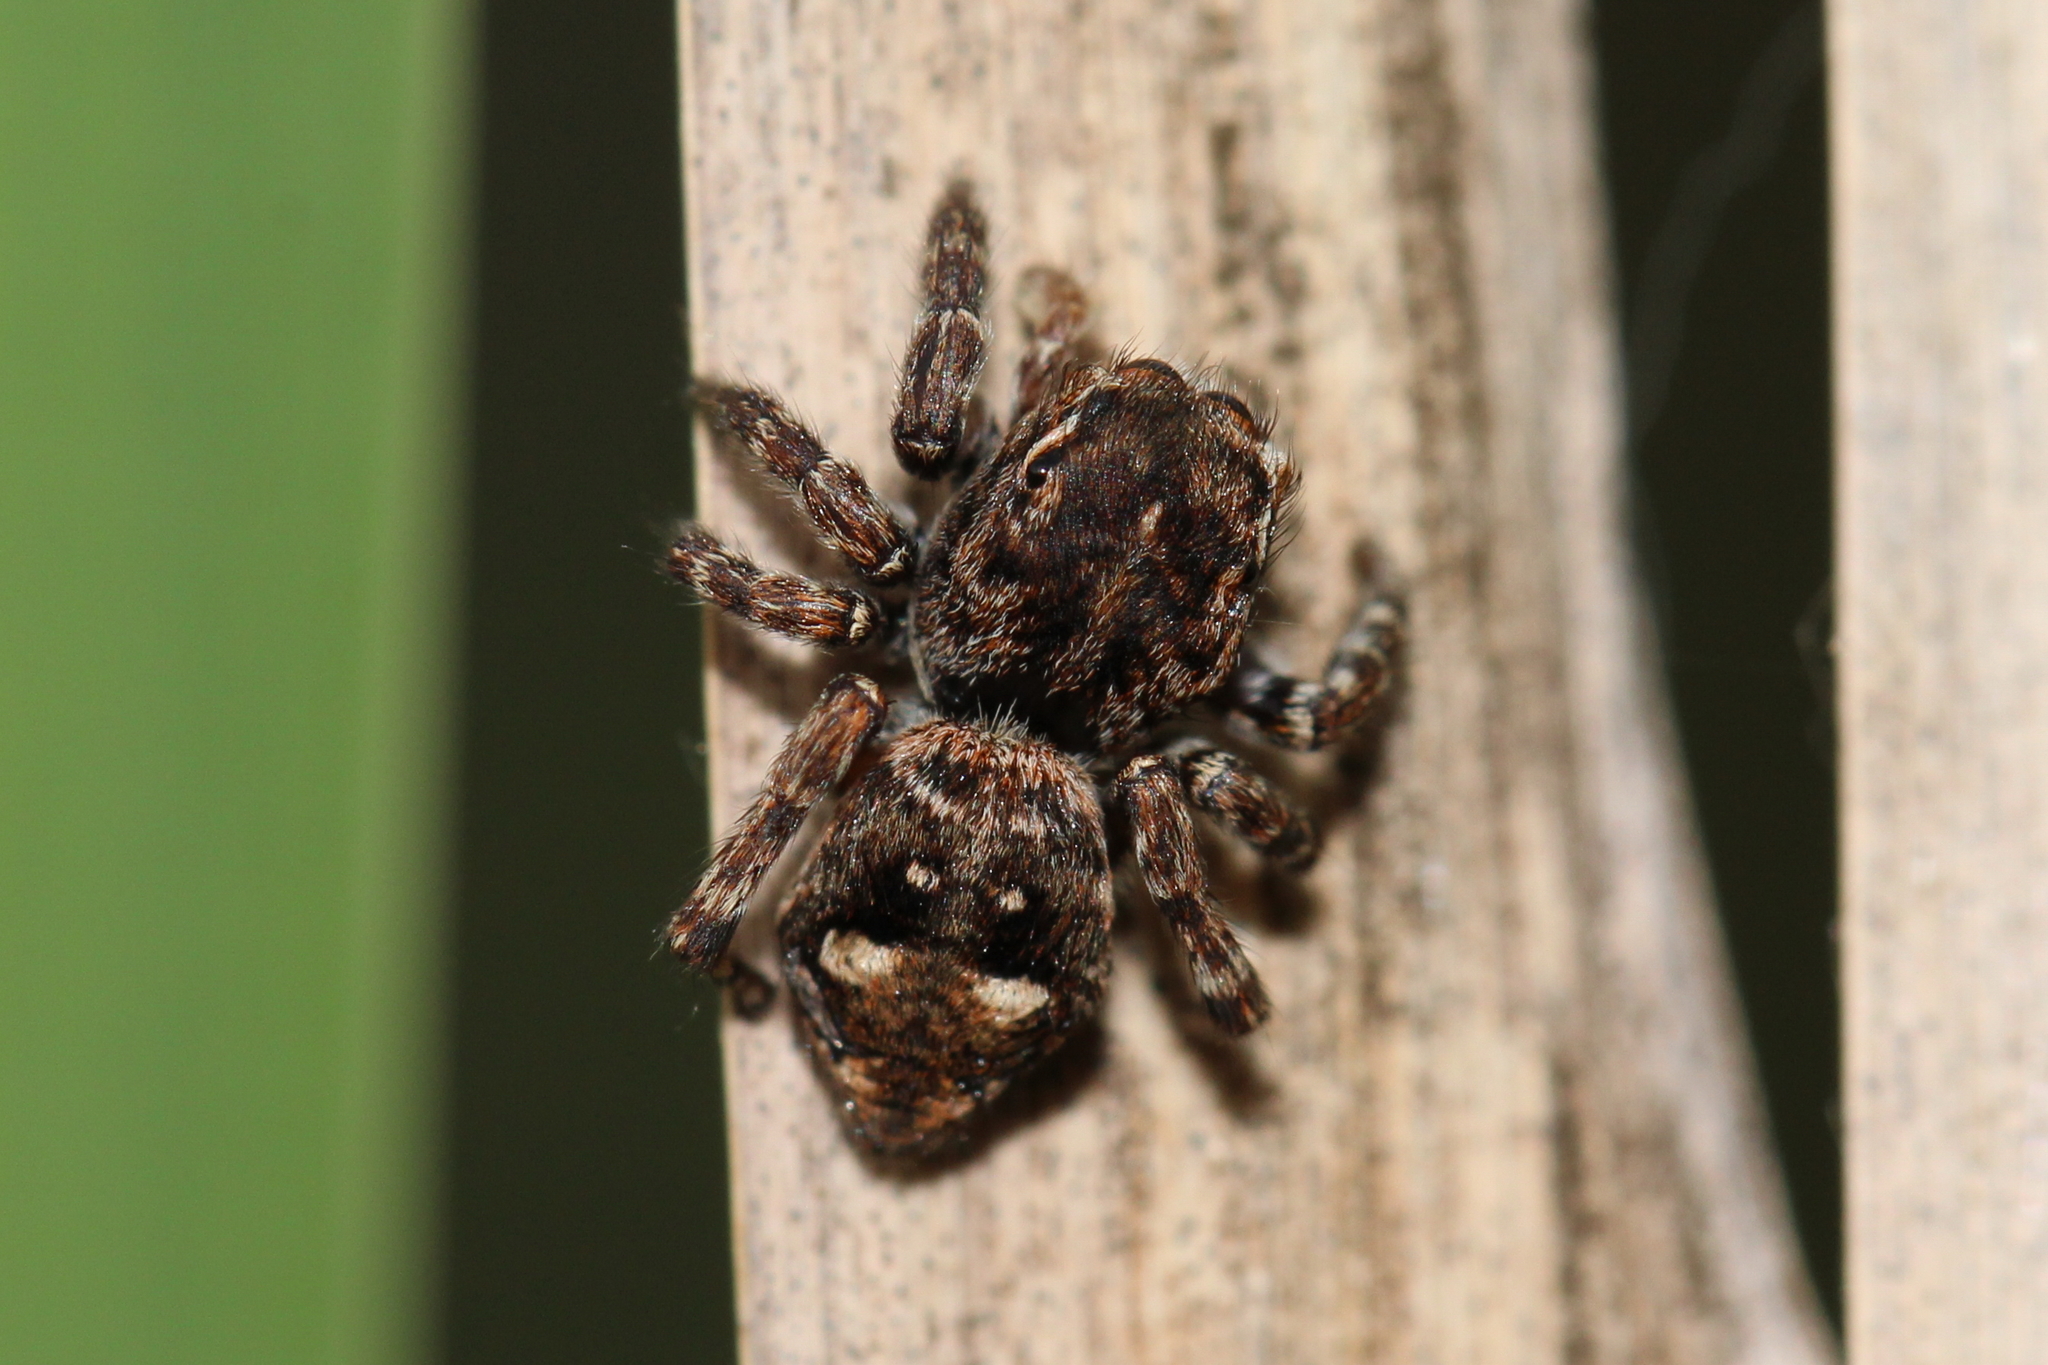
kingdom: Animalia
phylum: Arthropoda
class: Arachnida
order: Araneae
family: Salticidae
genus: Attulus
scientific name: Attulus floricola
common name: Flower jumping spider
